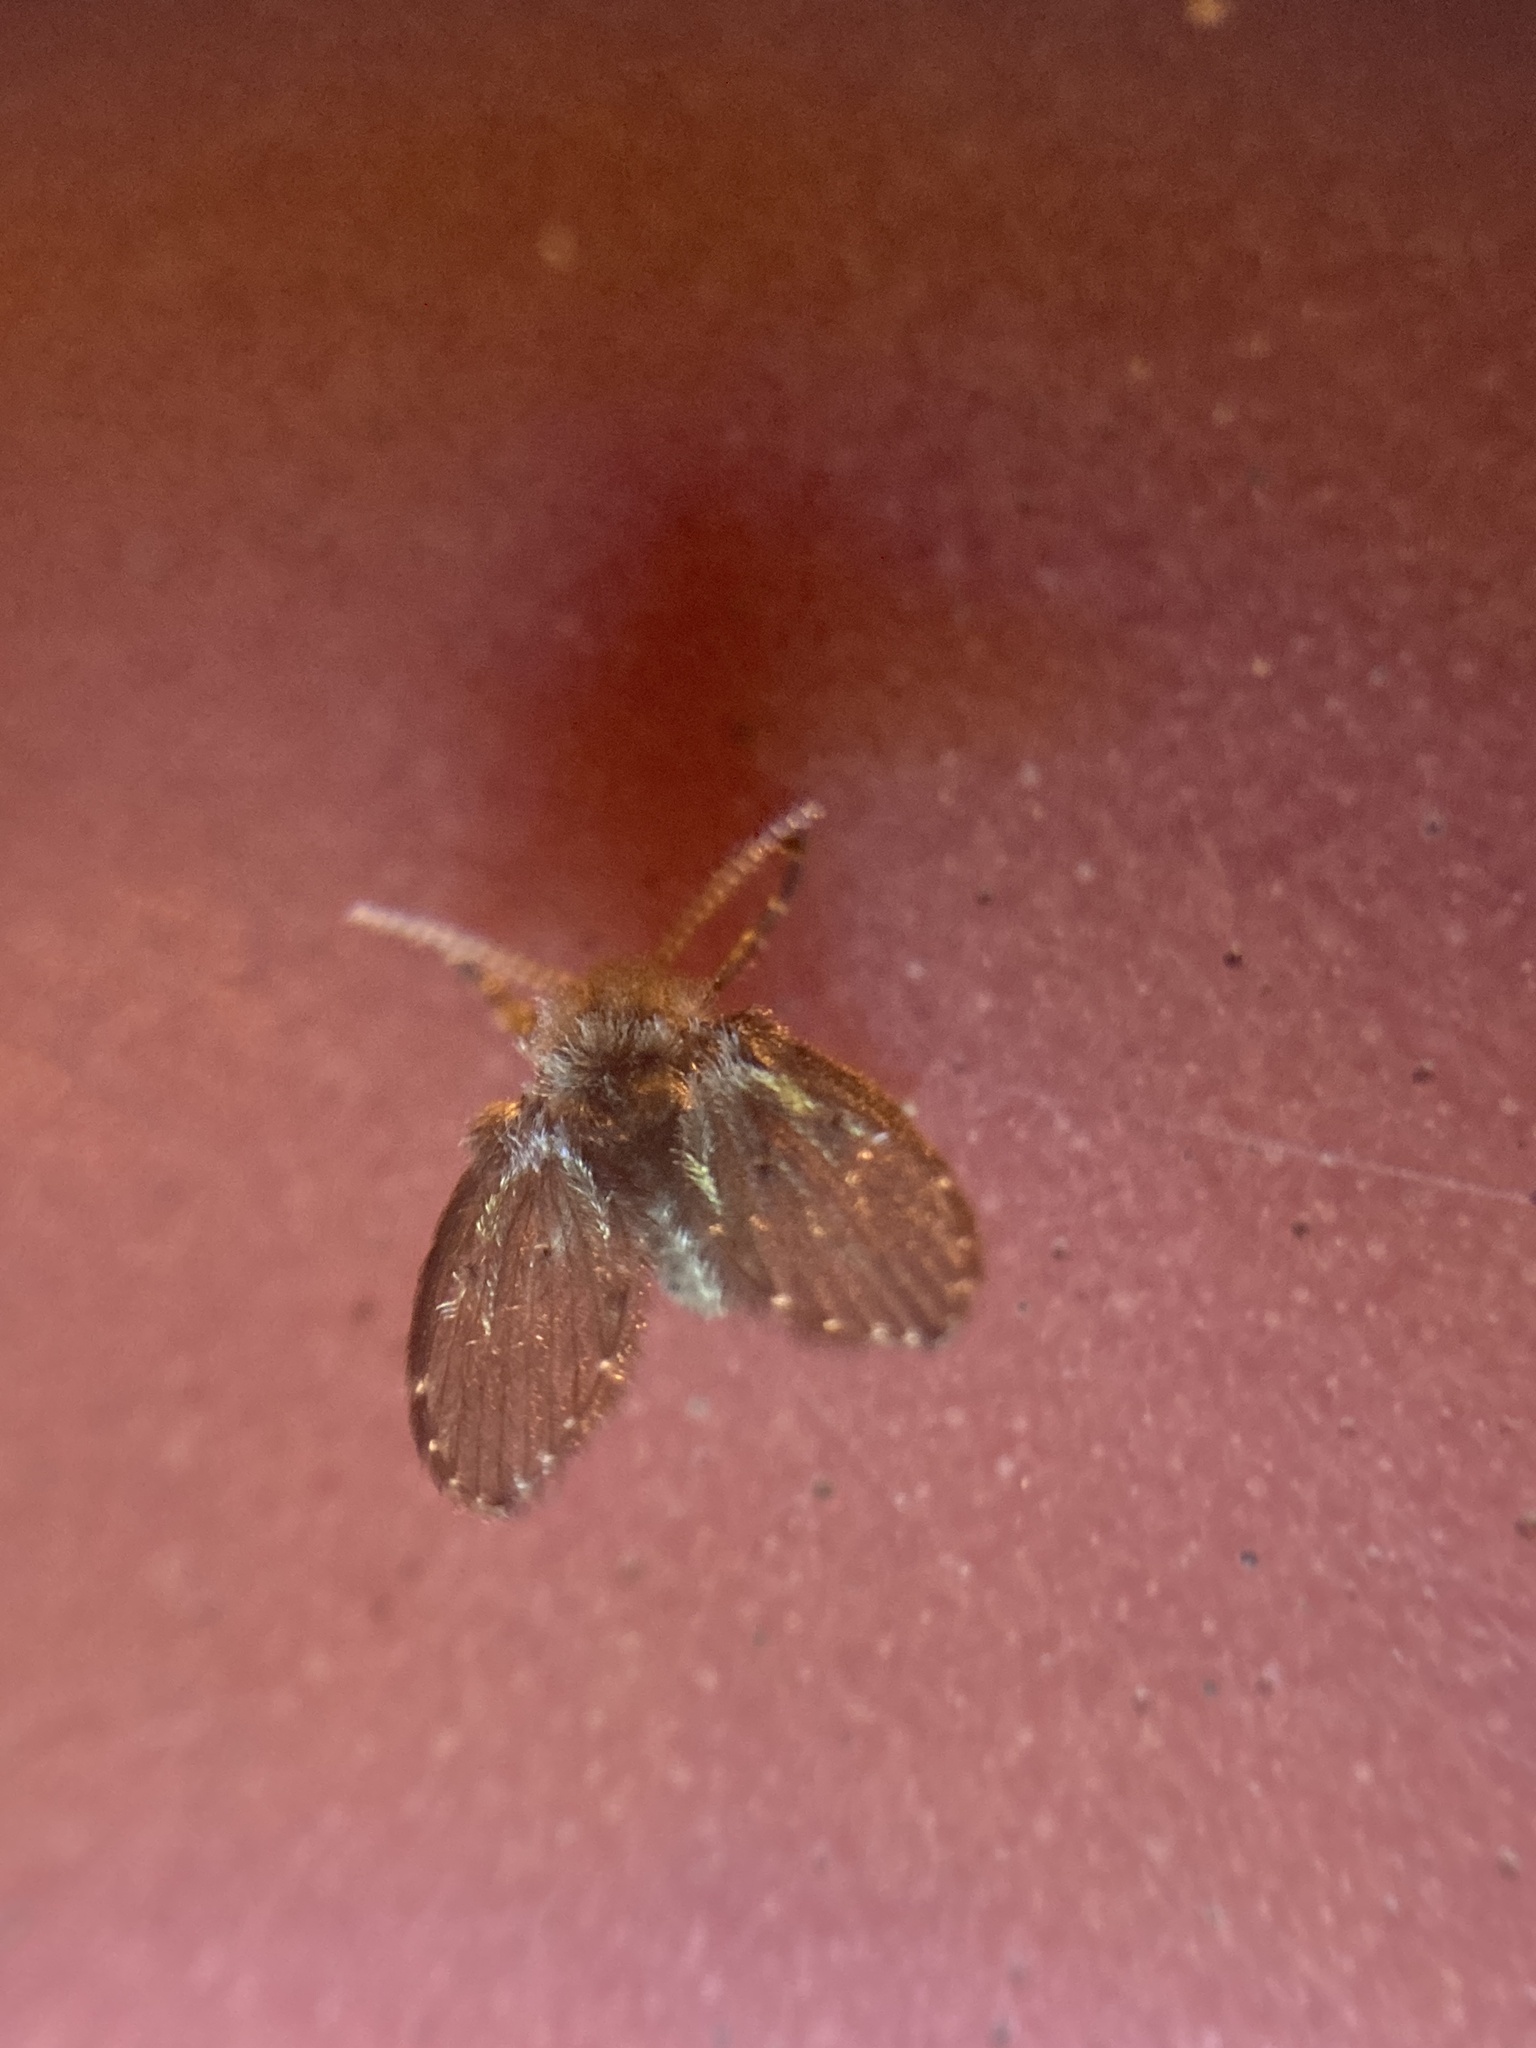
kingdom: Animalia
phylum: Arthropoda
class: Insecta
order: Diptera
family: Psychodidae
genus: Clogmia
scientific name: Clogmia albipunctatus
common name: White-spotted moth fly
